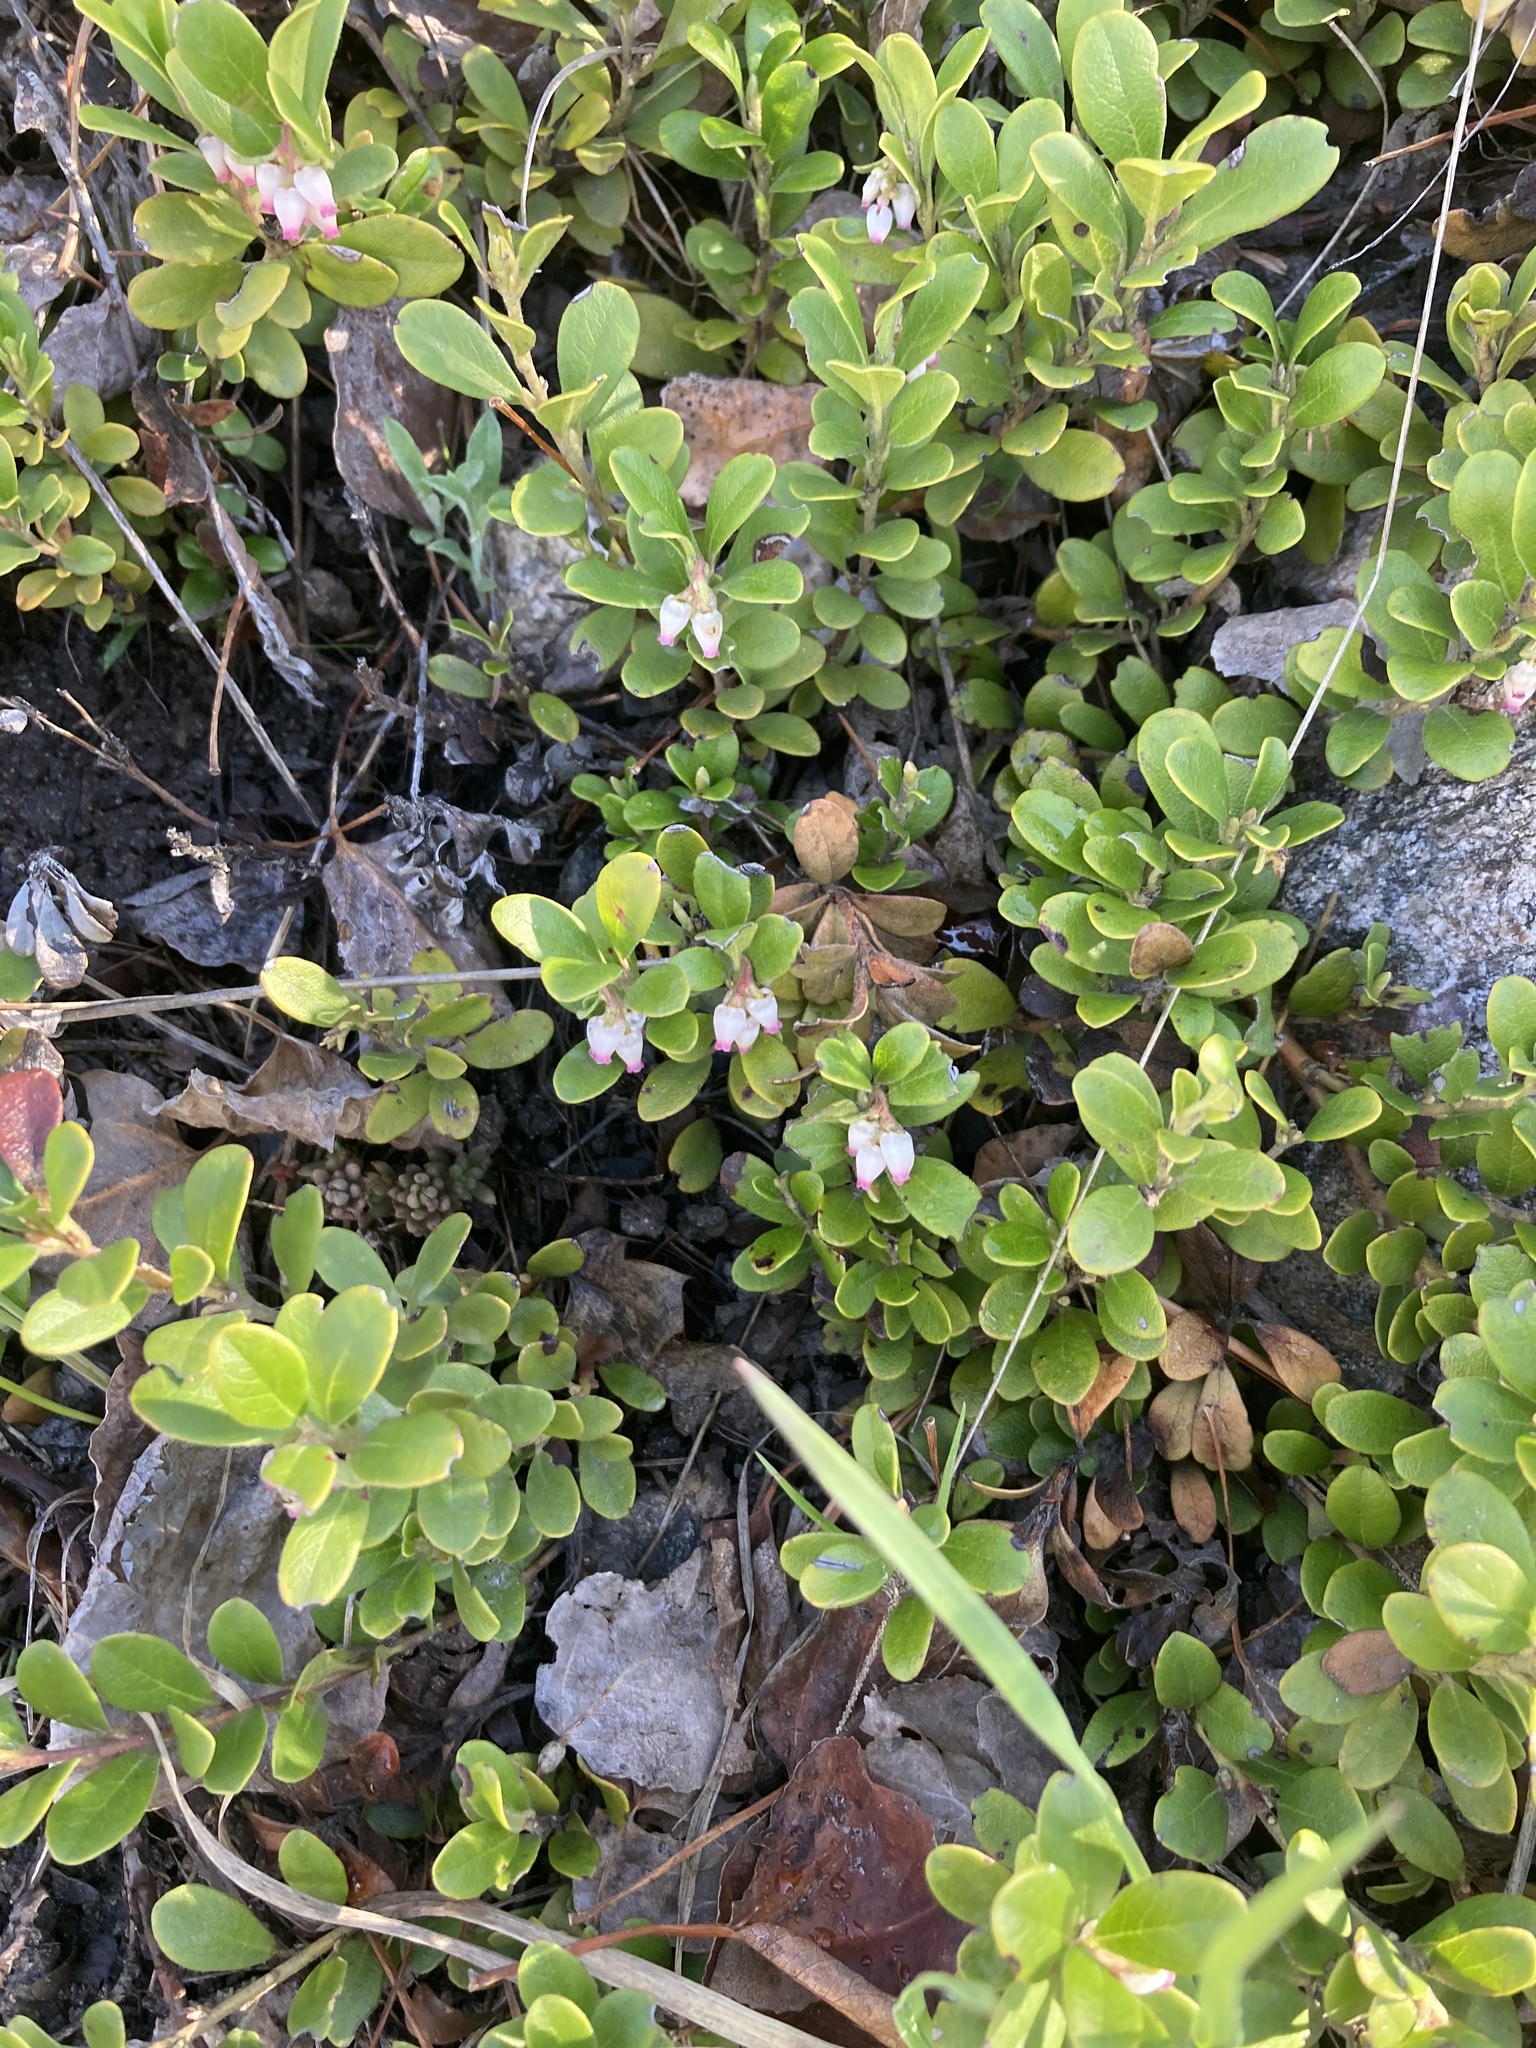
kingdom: Plantae
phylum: Tracheophyta
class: Magnoliopsida
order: Ericales
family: Ericaceae
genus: Arctostaphylos
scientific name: Arctostaphylos uva-ursi
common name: Bearberry
